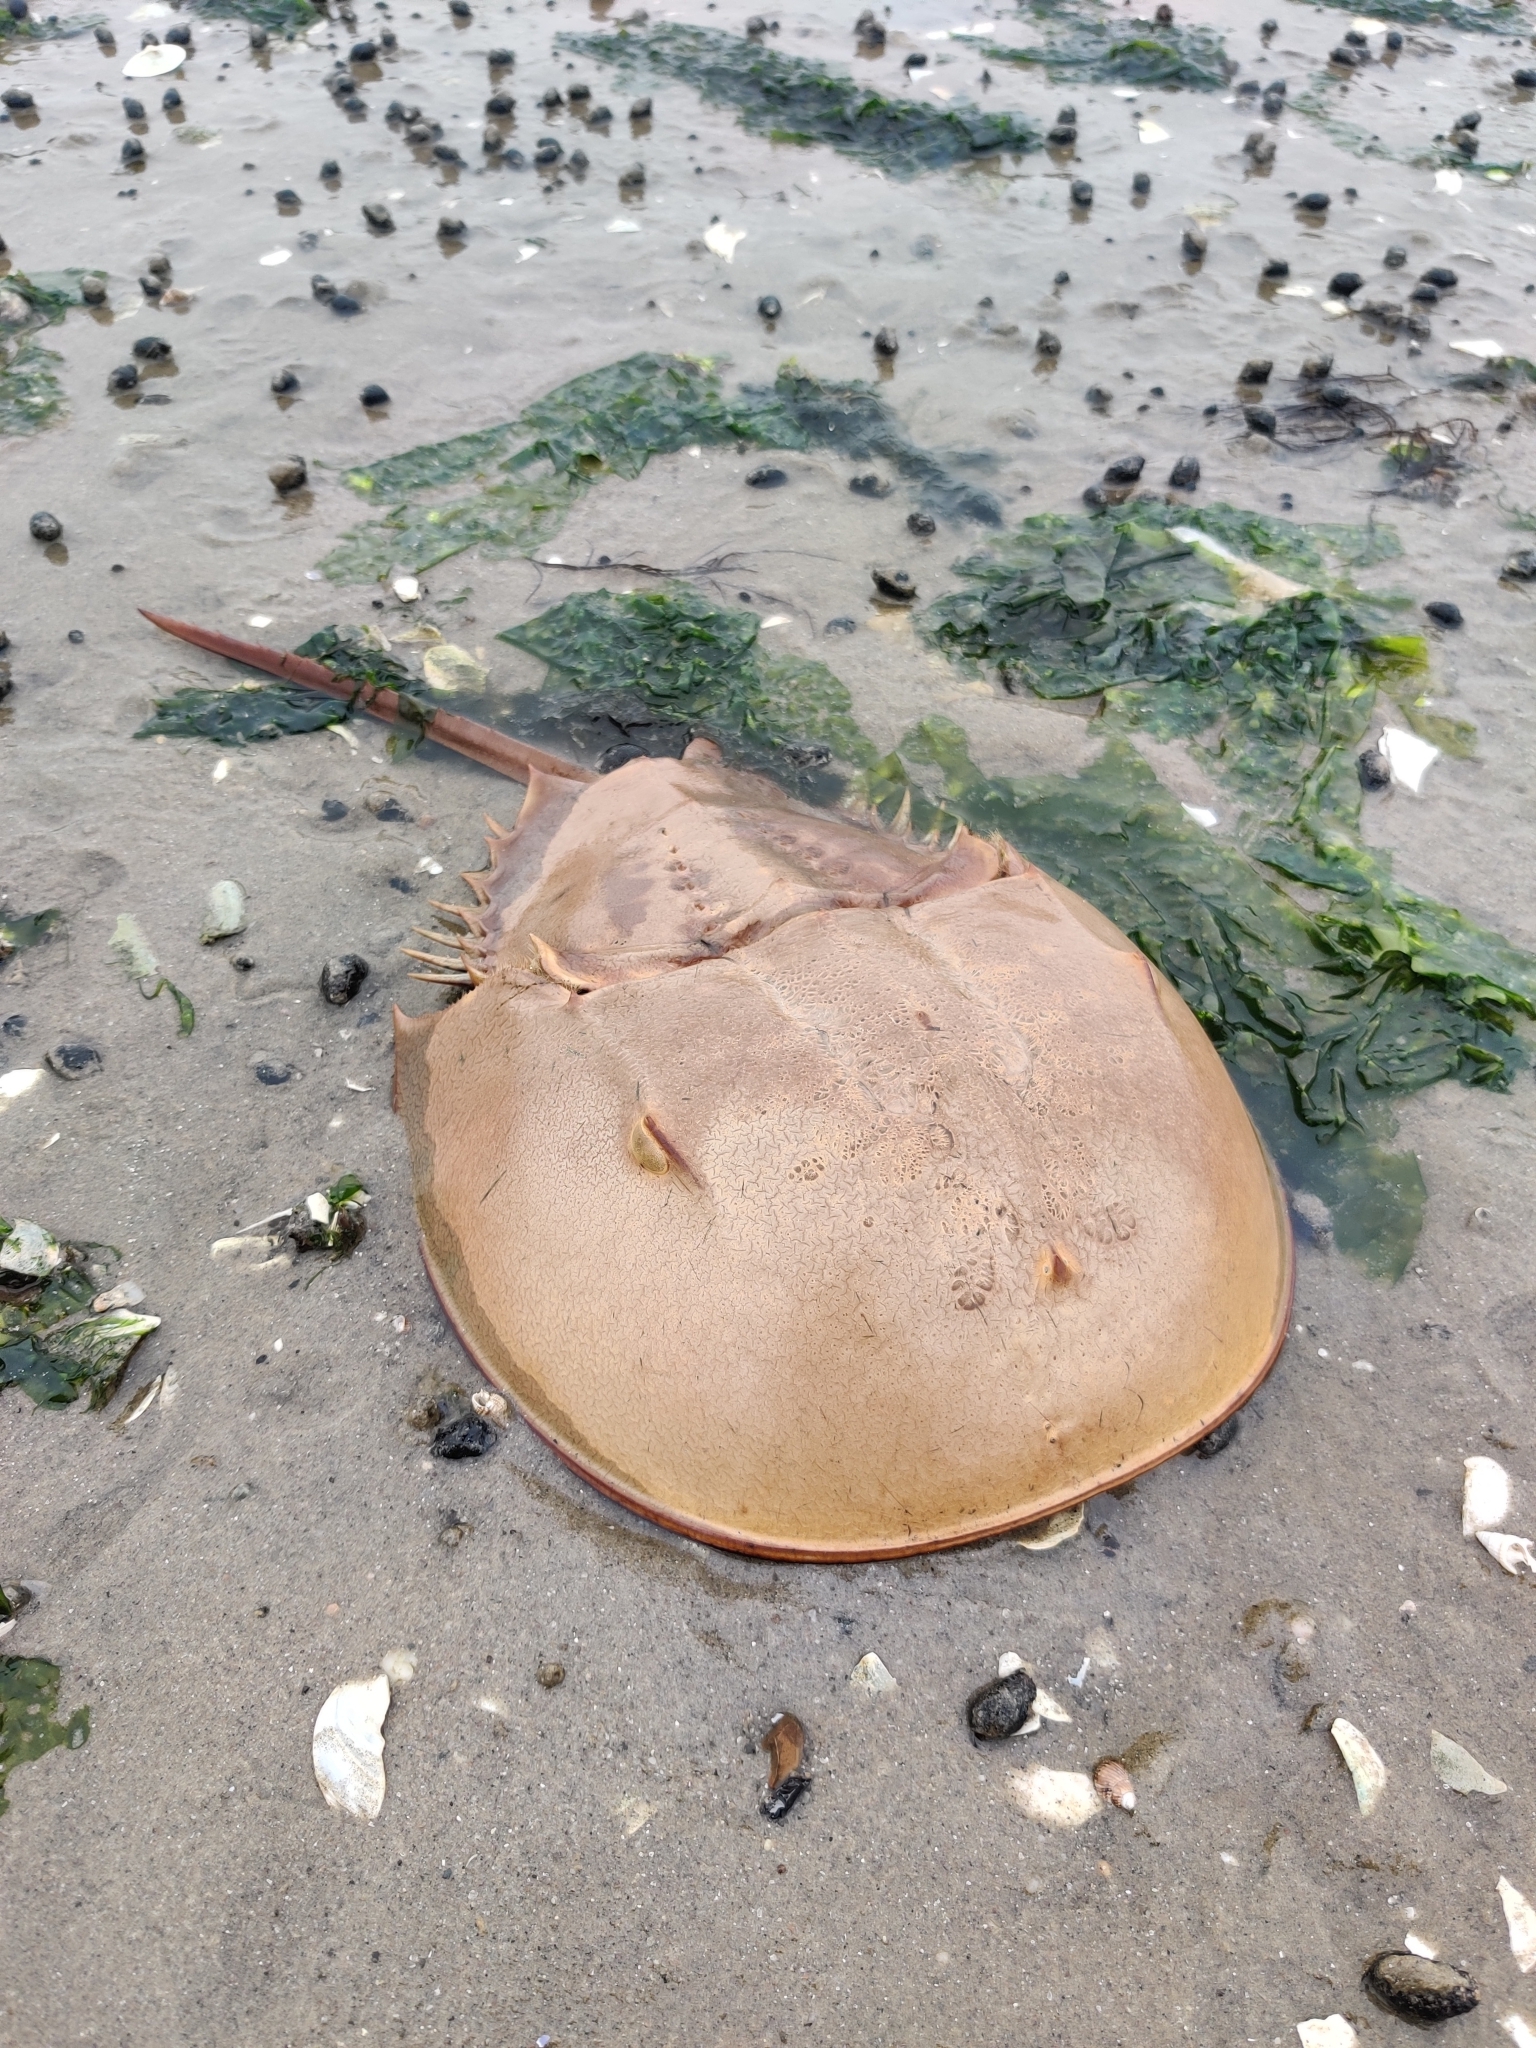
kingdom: Animalia
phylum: Arthropoda
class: Merostomata
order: Xiphosurida
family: Limulidae
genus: Limulus
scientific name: Limulus polyphemus
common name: Horseshoe crab
